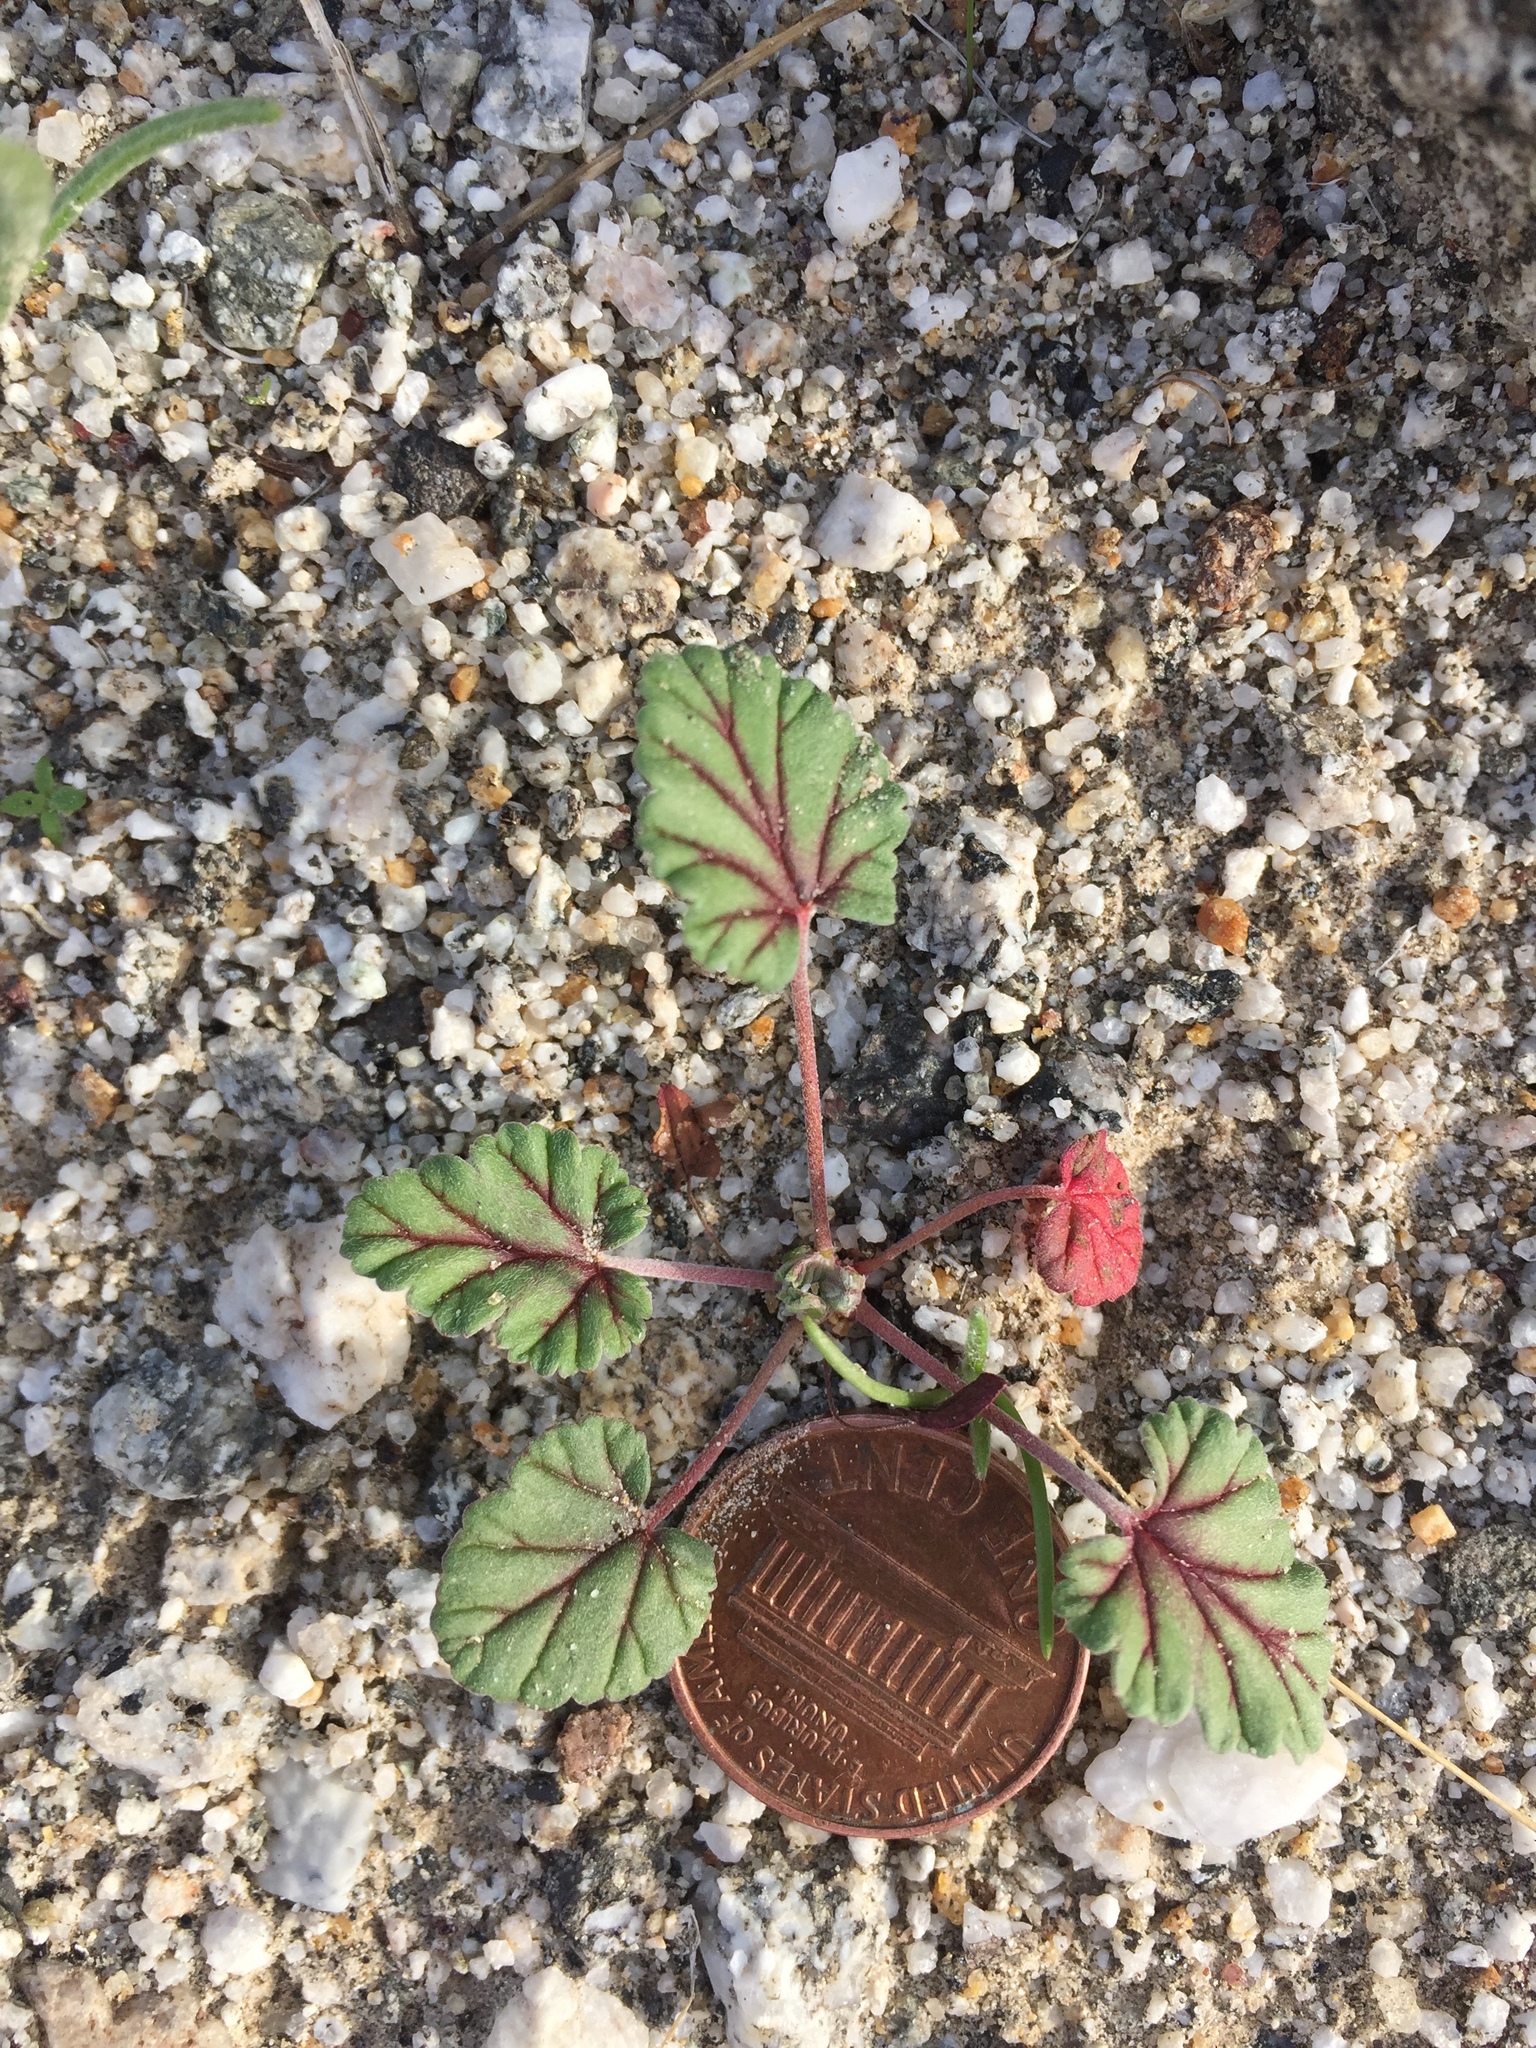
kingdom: Plantae
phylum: Tracheophyta
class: Magnoliopsida
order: Geraniales
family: Geraniaceae
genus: Erodium
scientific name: Erodium texanum
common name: Texas stork's-bill
